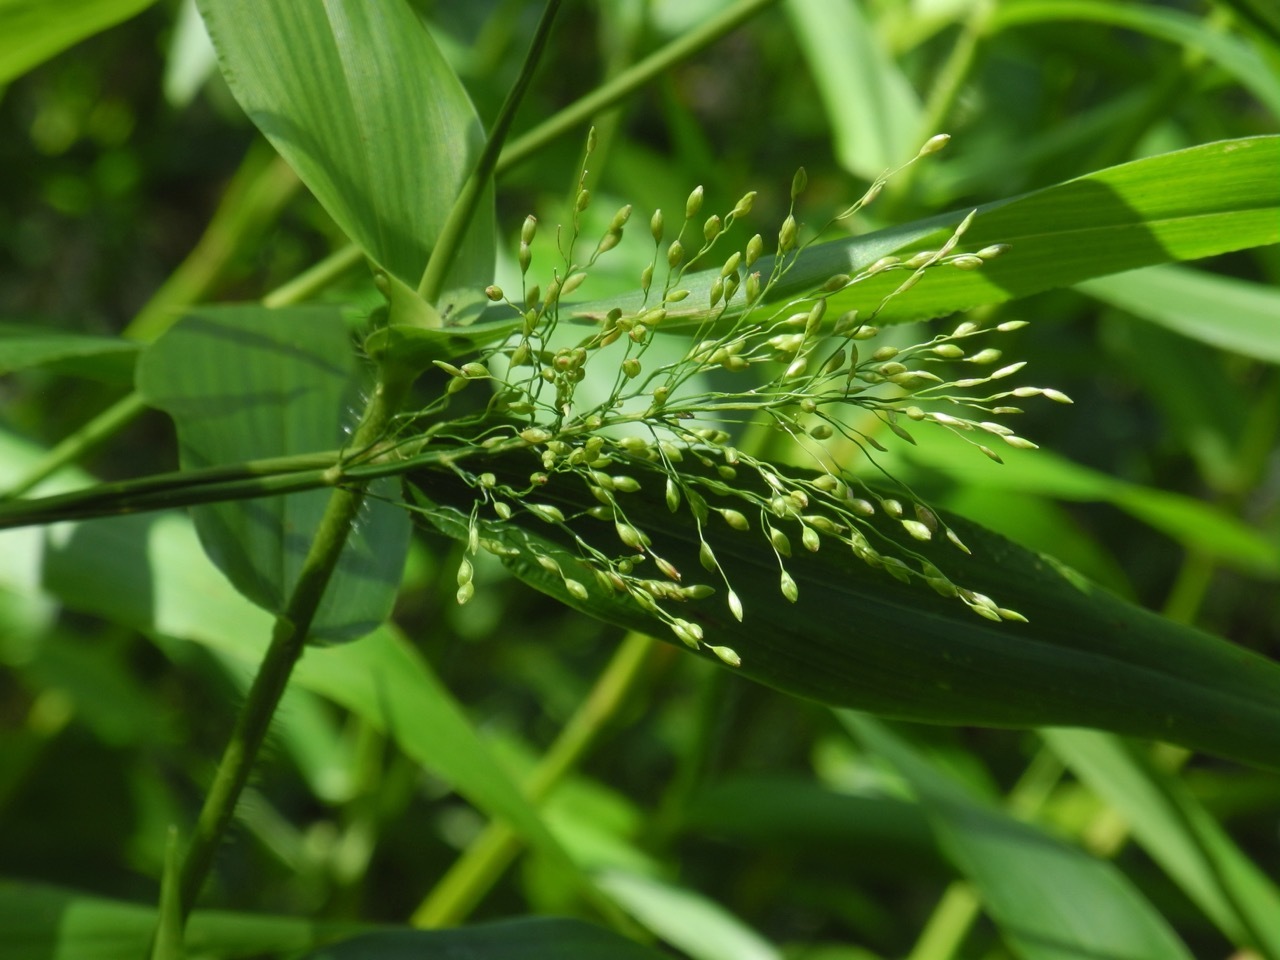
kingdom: Plantae
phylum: Tracheophyta
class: Liliopsida
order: Poales
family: Poaceae
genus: Dichanthelium
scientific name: Dichanthelium clandestinum
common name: Deer-tongue grass
